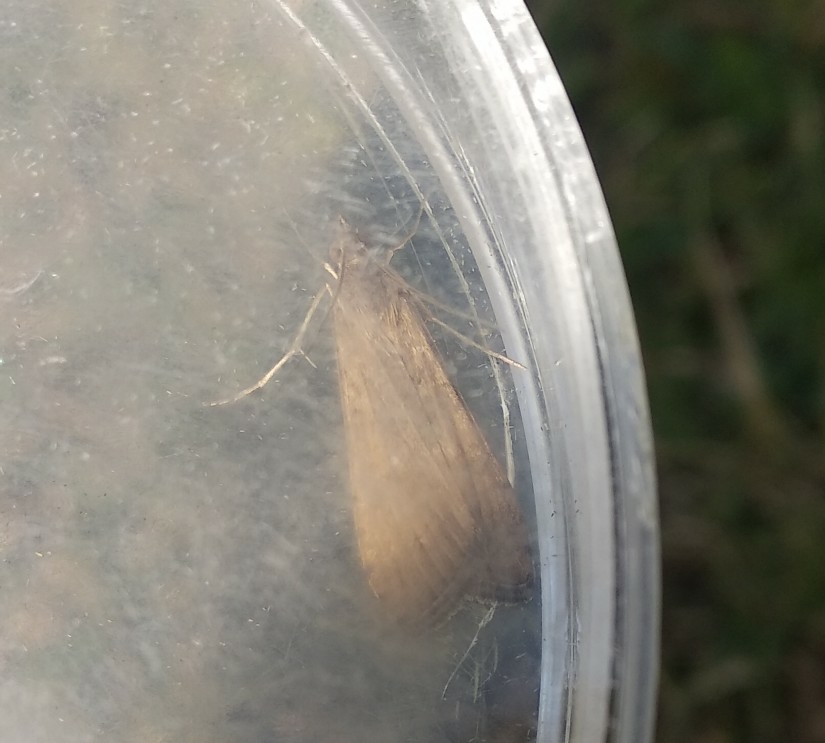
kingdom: Animalia
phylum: Arthropoda
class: Insecta
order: Lepidoptera
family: Crambidae
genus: Nomophila
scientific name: Nomophila noctuella
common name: Rush veneer
